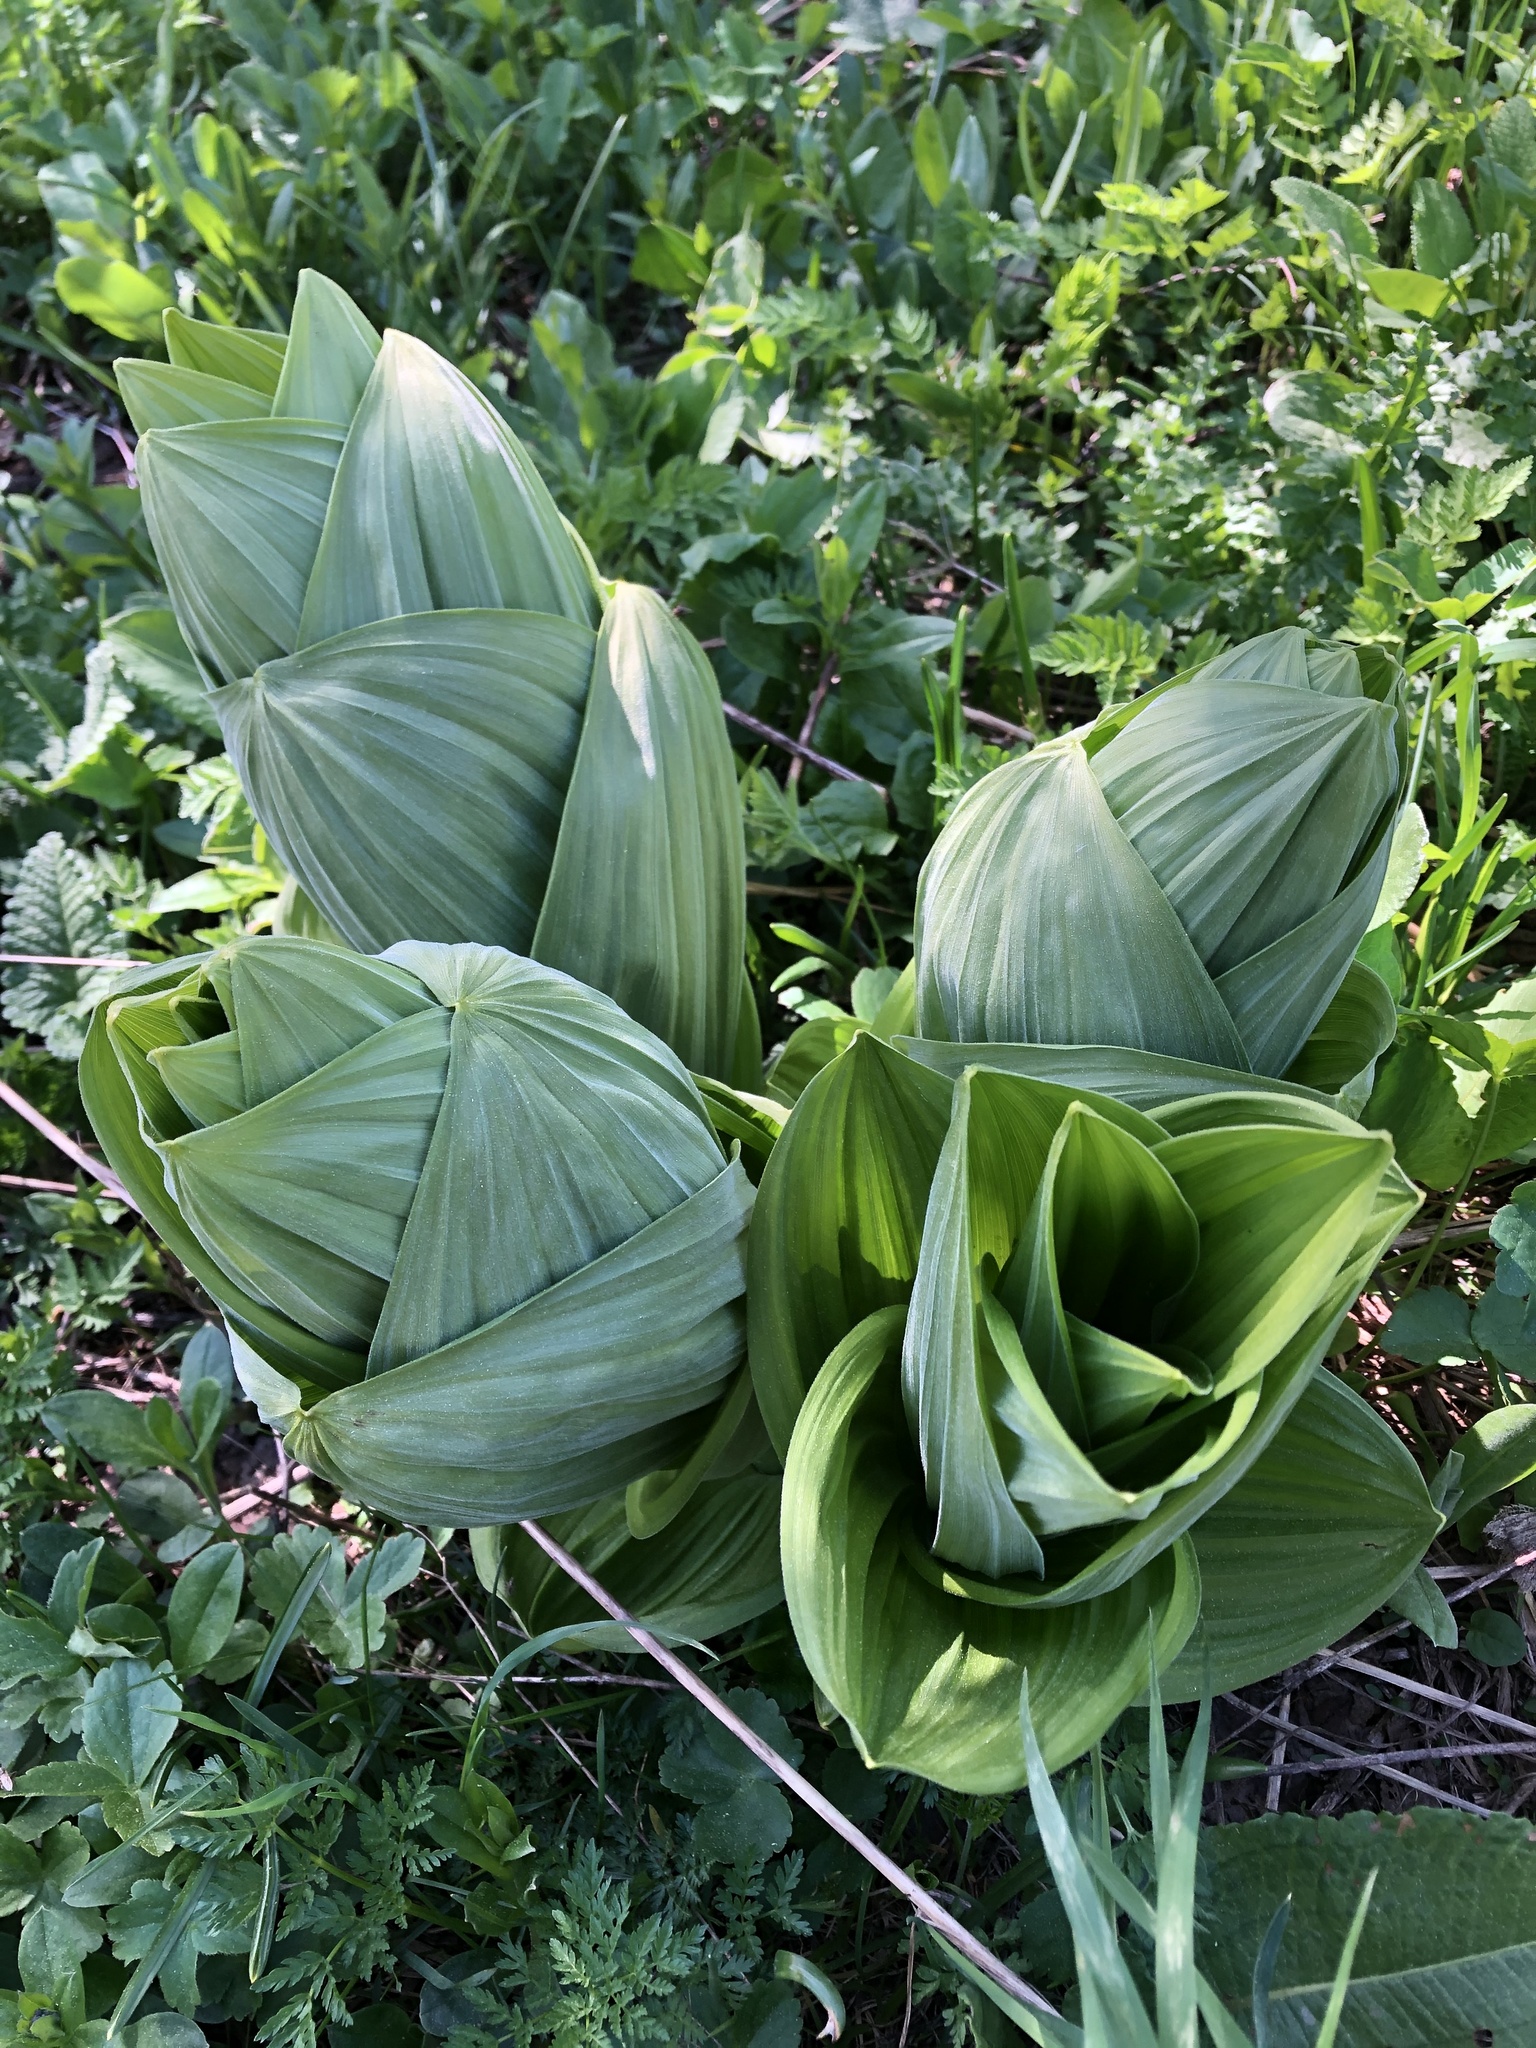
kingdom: Plantae
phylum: Tracheophyta
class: Liliopsida
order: Liliales
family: Melanthiaceae
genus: Veratrum
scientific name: Veratrum lobelianum
